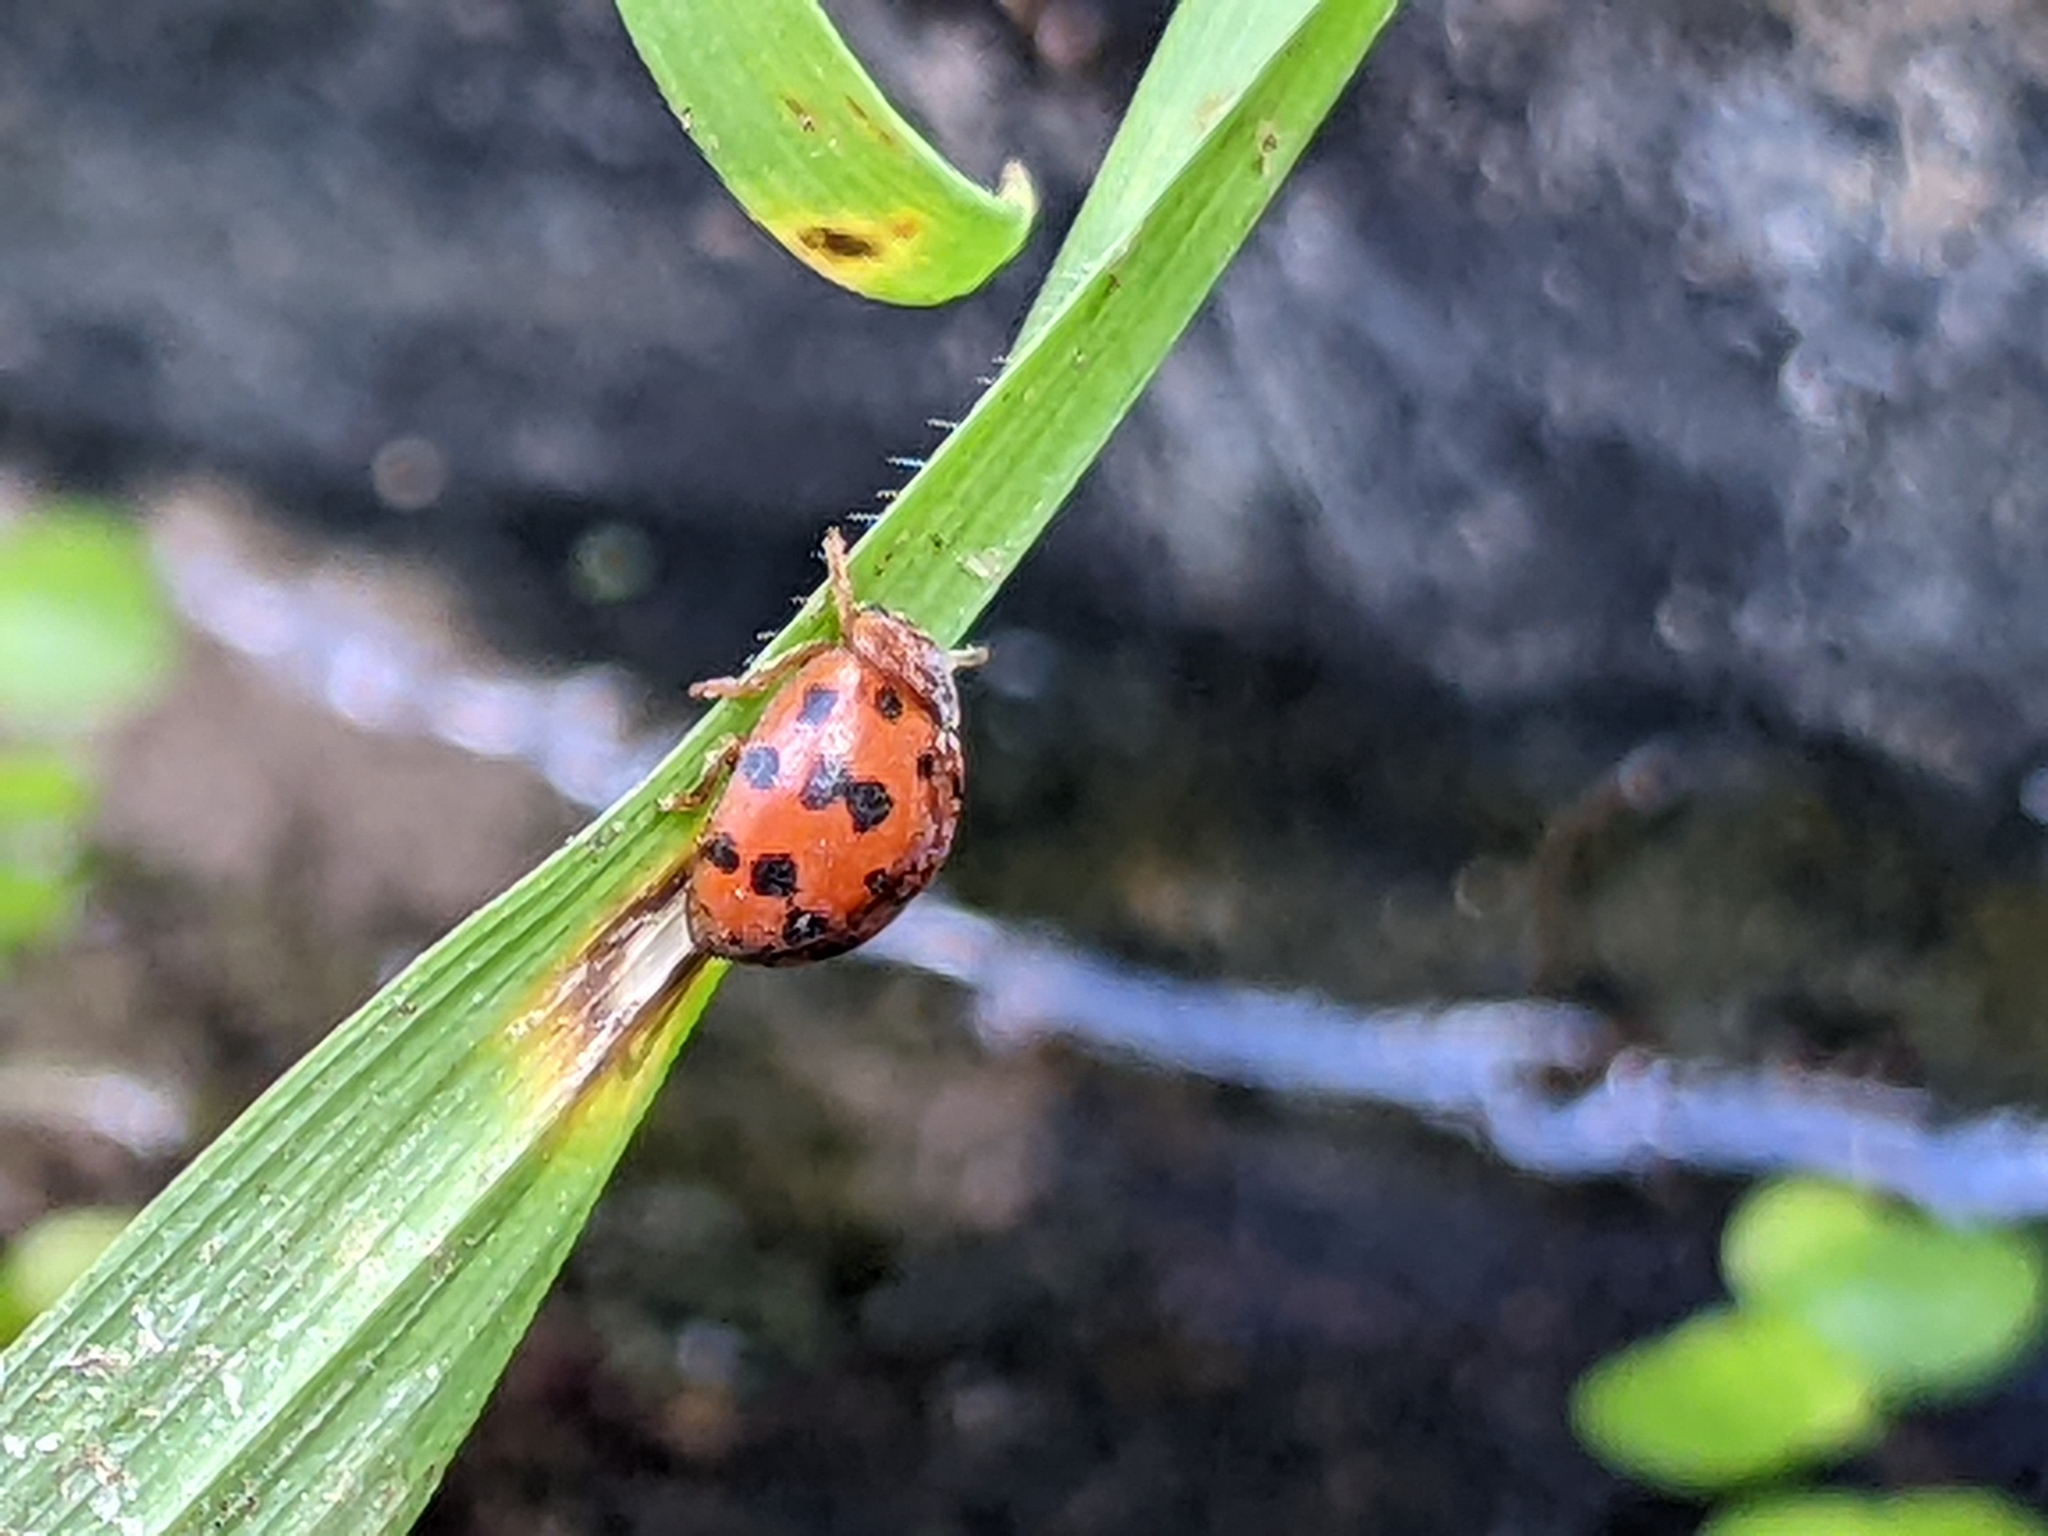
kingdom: Animalia
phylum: Arthropoda
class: Insecta
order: Coleoptera
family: Coccinellidae
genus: Subcoccinella
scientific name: Subcoccinella vigintiquatuorpunctata
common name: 24-spot ladybird
